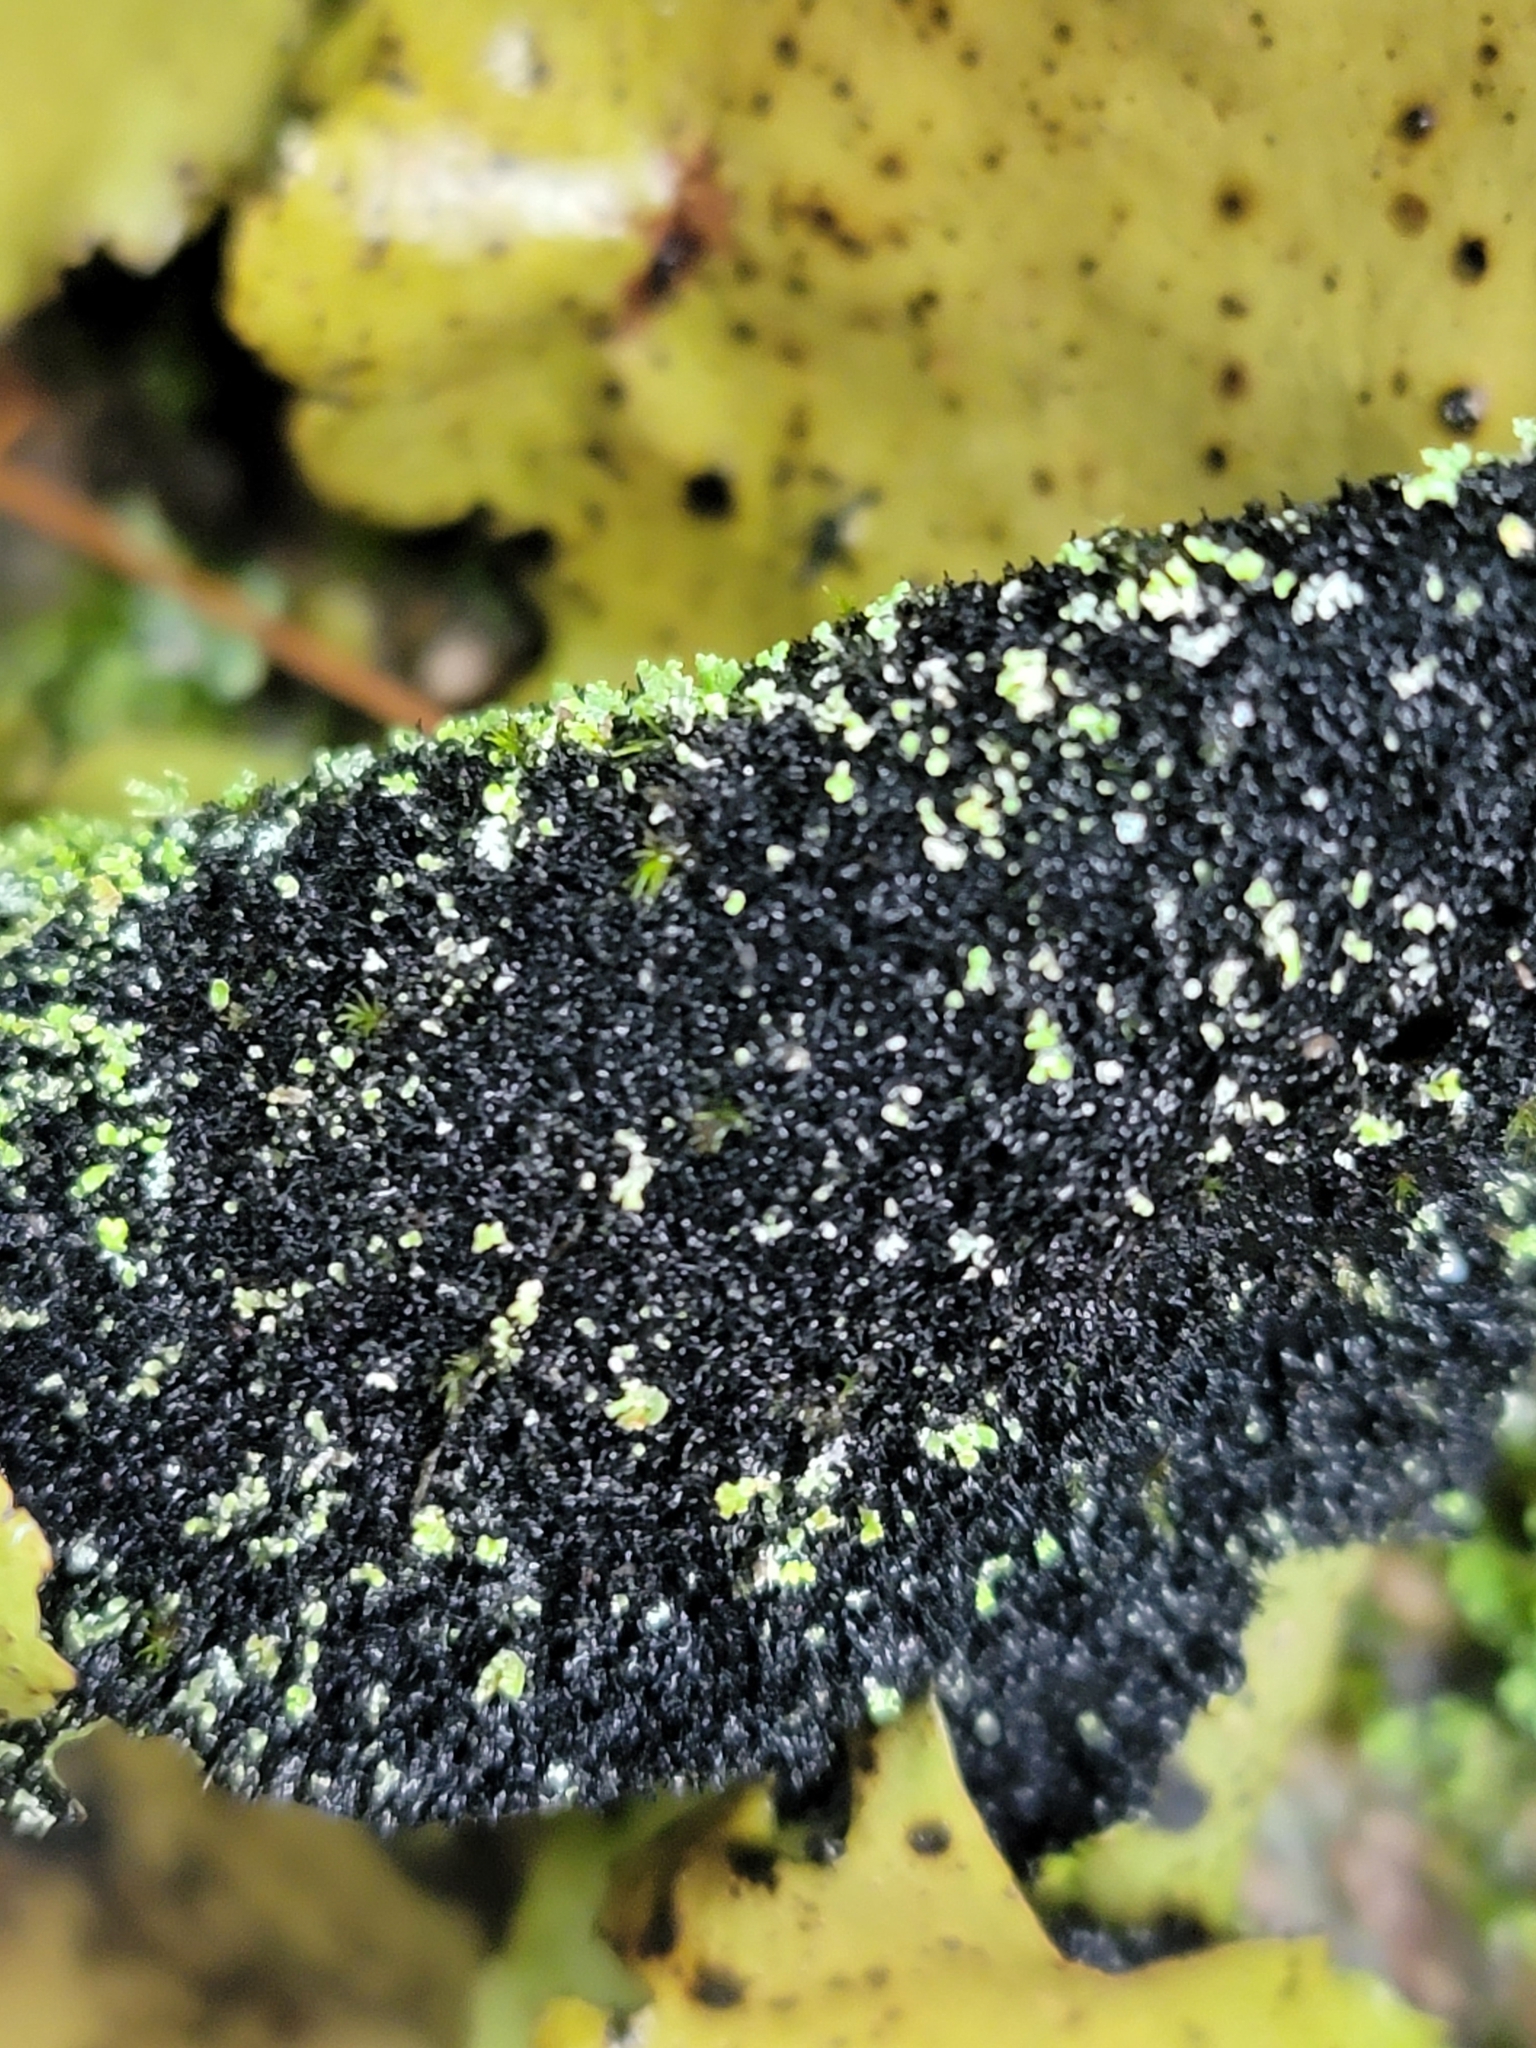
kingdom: Fungi
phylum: Ascomycota
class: Lecanoromycetes
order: Umbilicariales
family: Umbilicariaceae
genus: Umbilicaria
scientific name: Umbilicaria mammulata
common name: Smooth rock tripe
